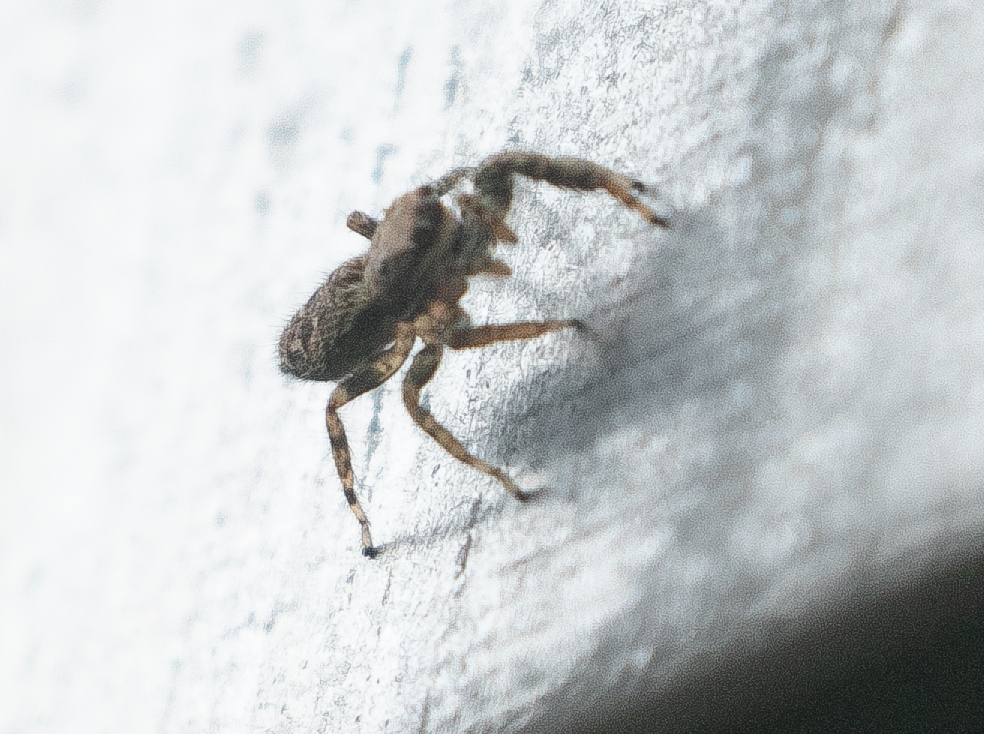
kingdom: Animalia
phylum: Arthropoda
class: Arachnida
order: Araneae
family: Salticidae
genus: Marpissa
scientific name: Marpissa muscosa
